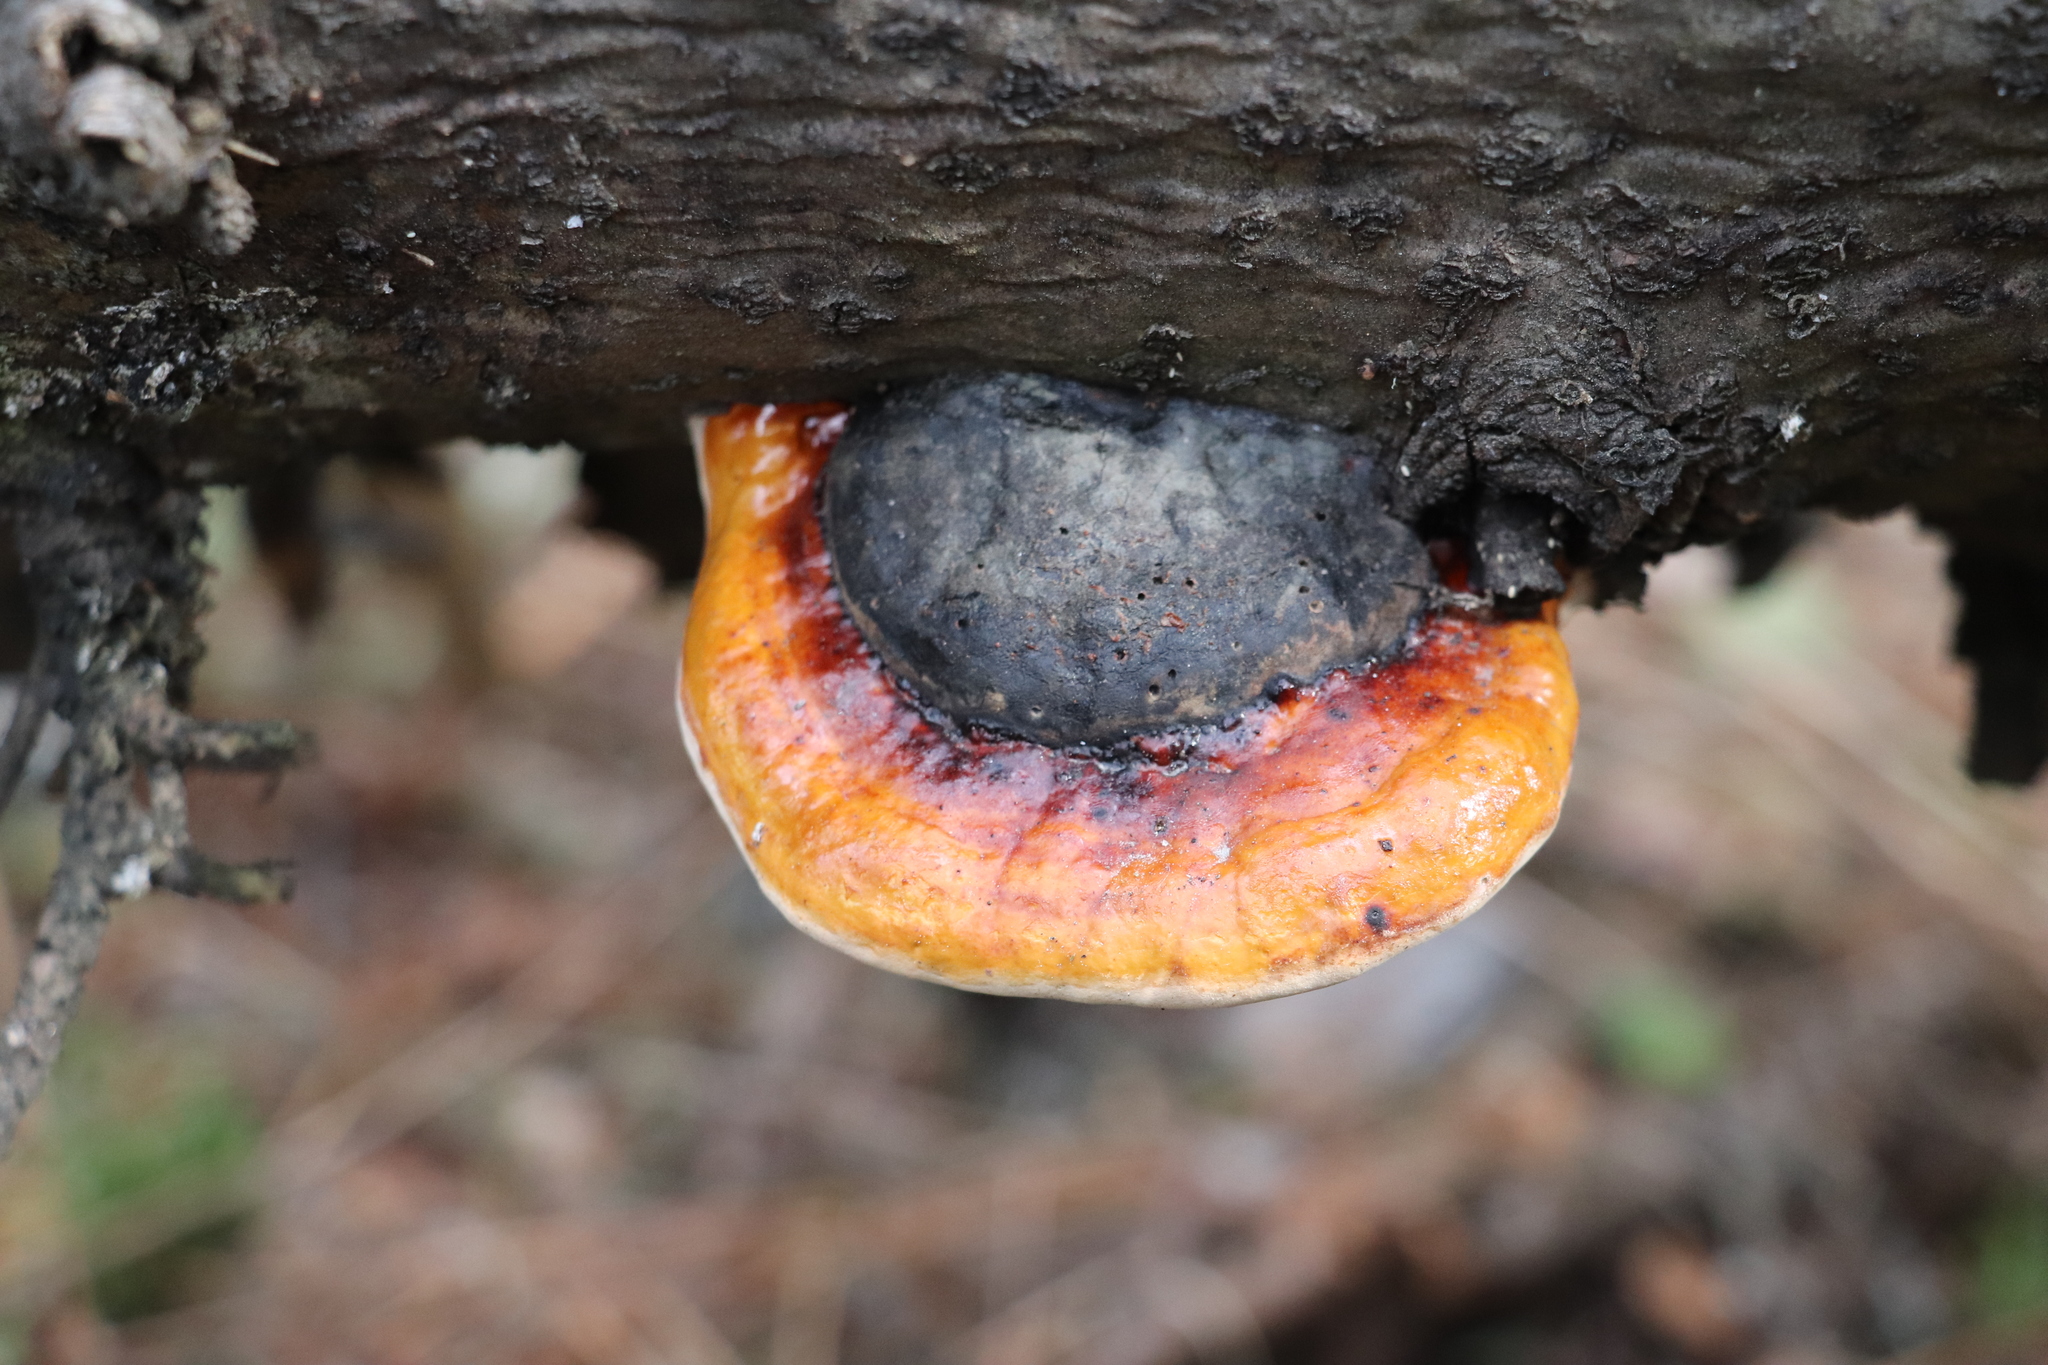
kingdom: Fungi
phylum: Basidiomycota
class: Agaricomycetes
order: Polyporales
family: Fomitopsidaceae
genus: Fomitopsis
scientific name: Fomitopsis pinicola
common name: Red-belted bracket
